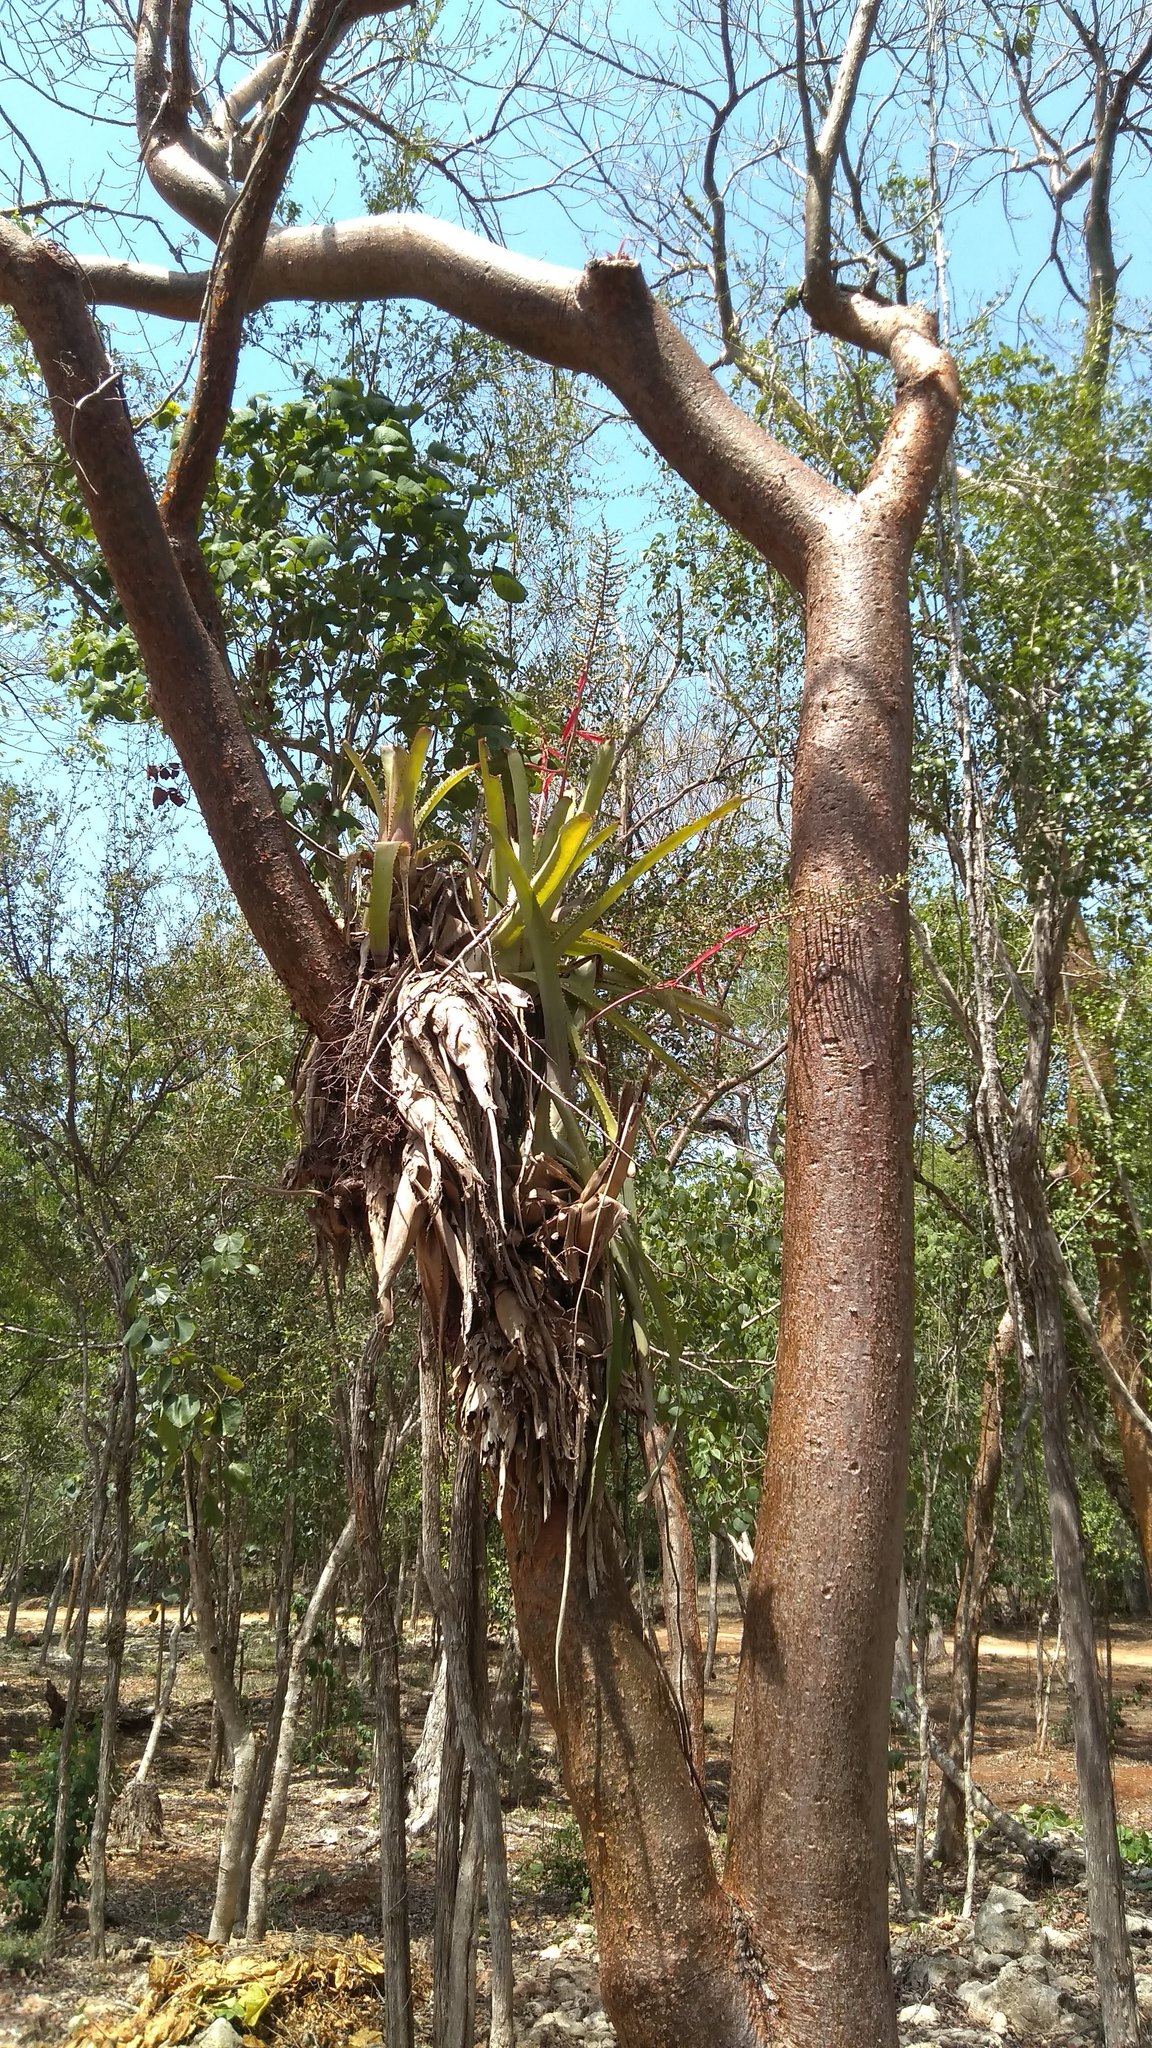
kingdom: Plantae
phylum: Tracheophyta
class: Liliopsida
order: Poales
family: Bromeliaceae
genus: Aechmea
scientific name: Aechmea bracteata
